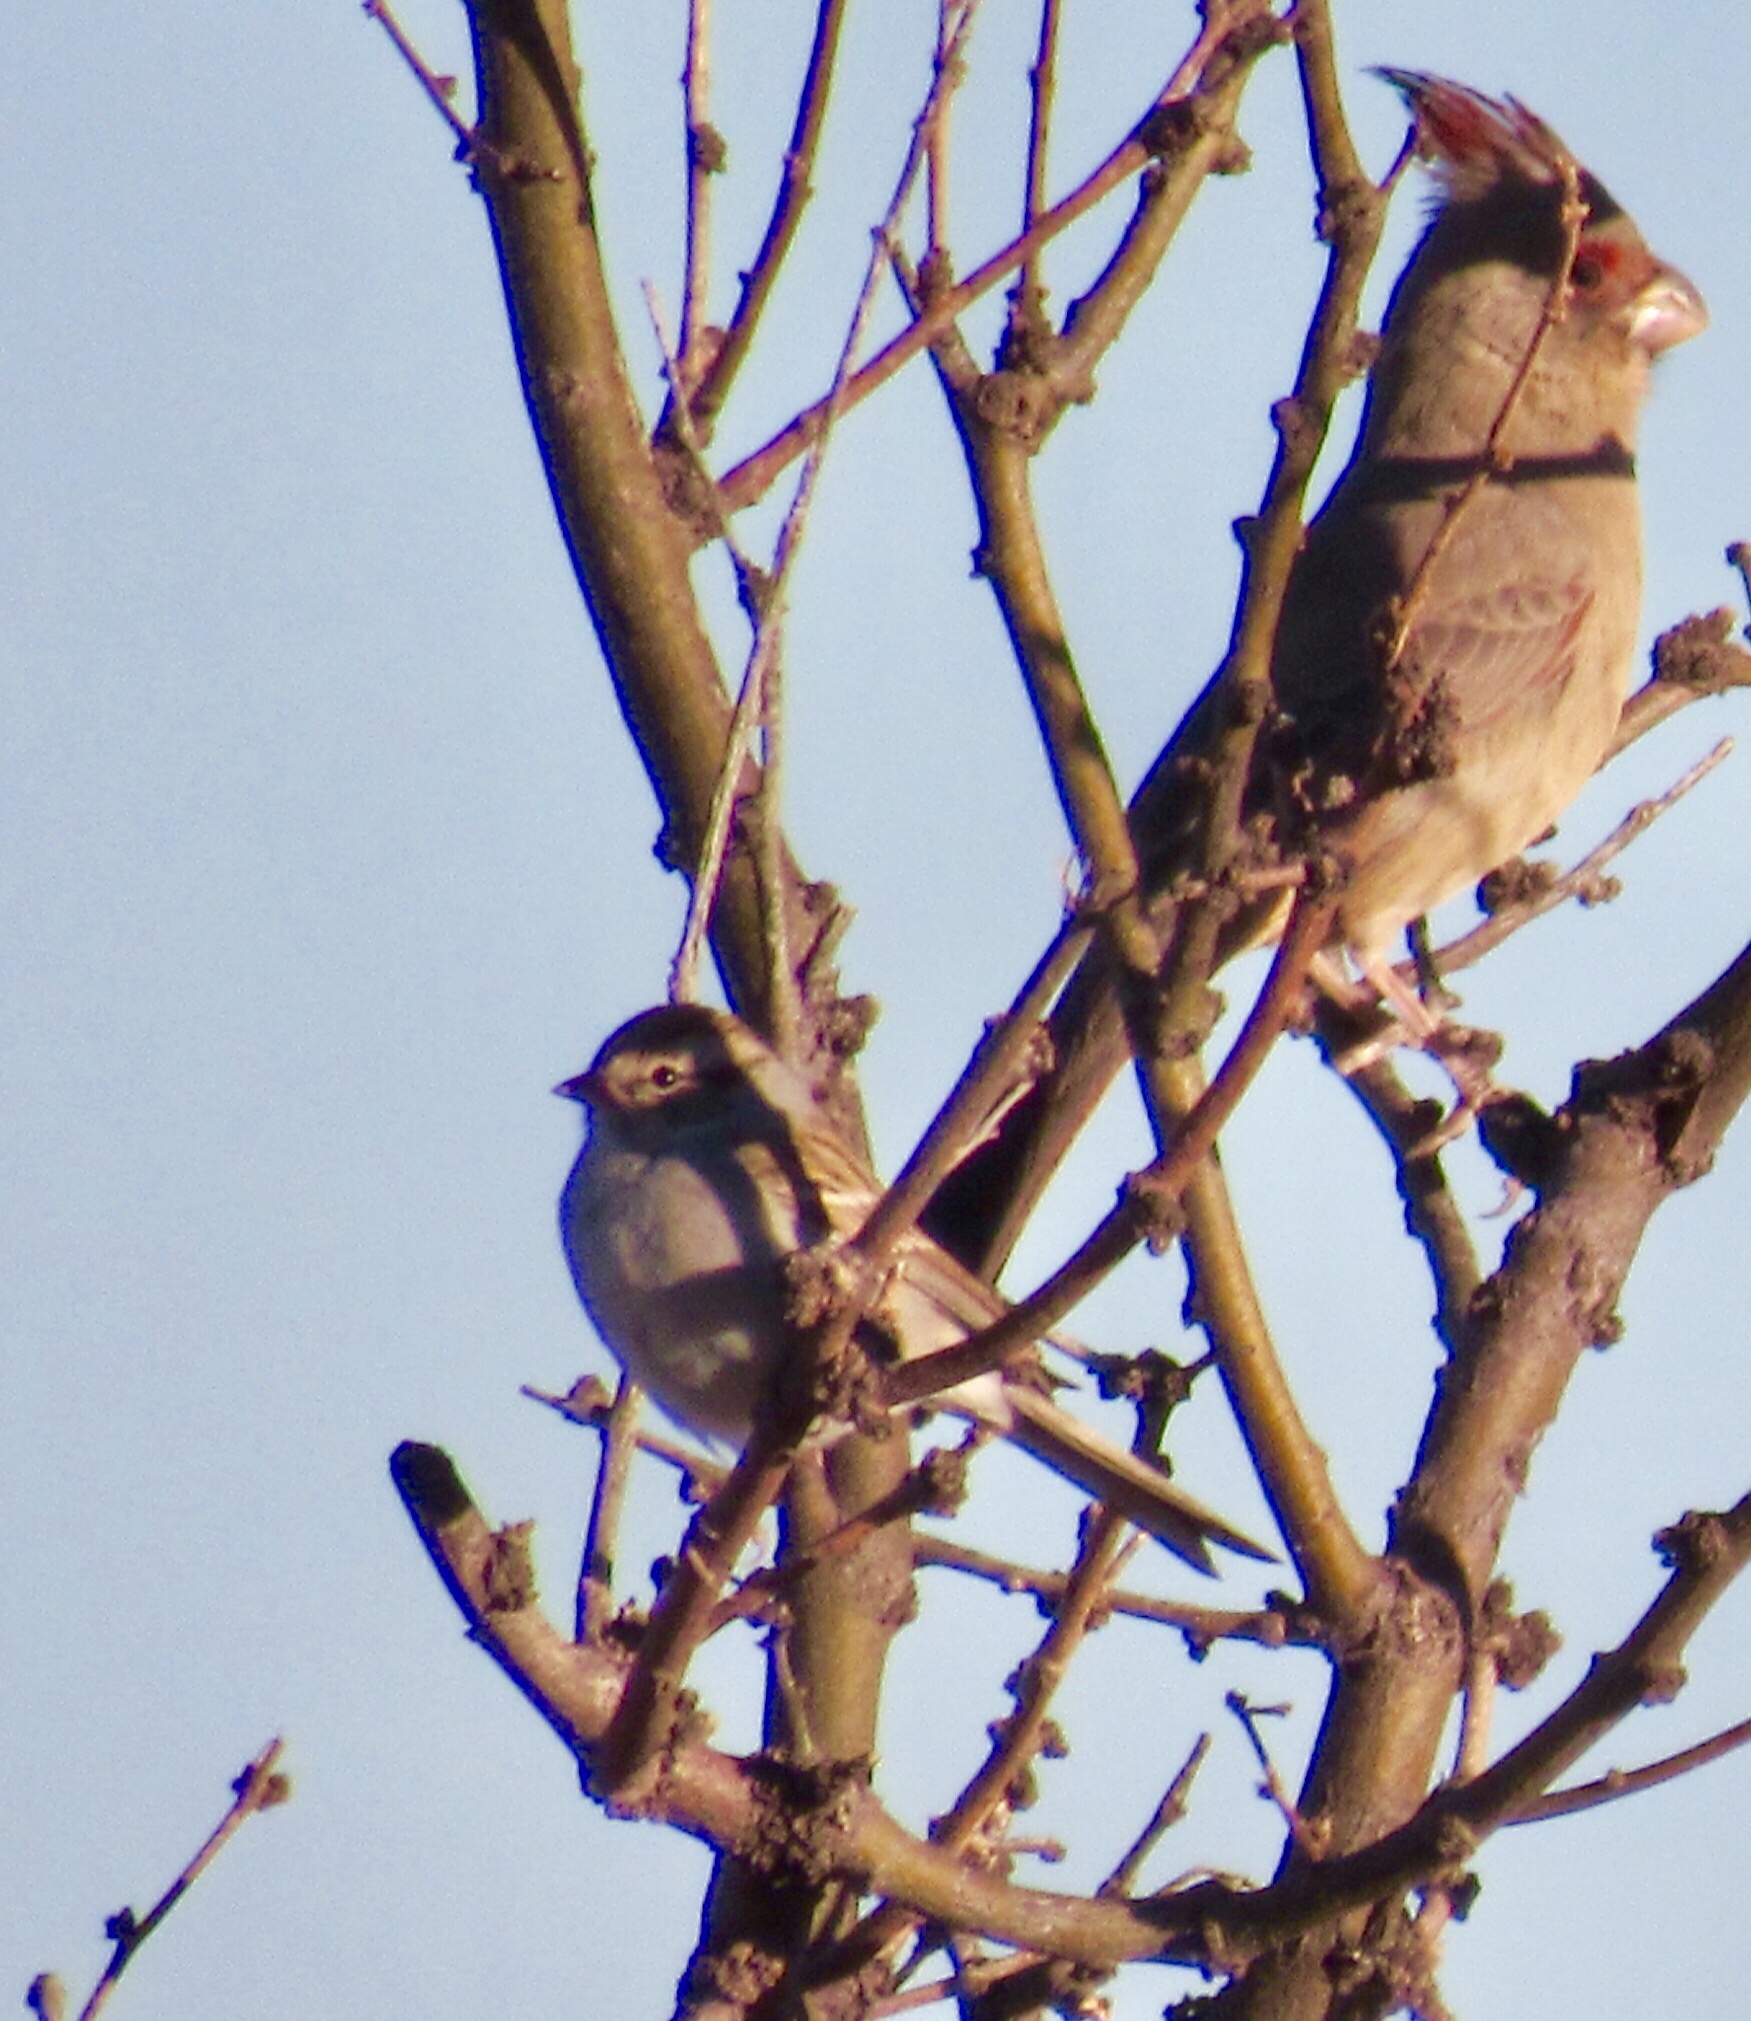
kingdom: Animalia
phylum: Chordata
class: Aves
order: Passeriformes
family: Passerellidae
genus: Zonotrichia
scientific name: Zonotrichia leucophrys
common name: White-crowned sparrow
